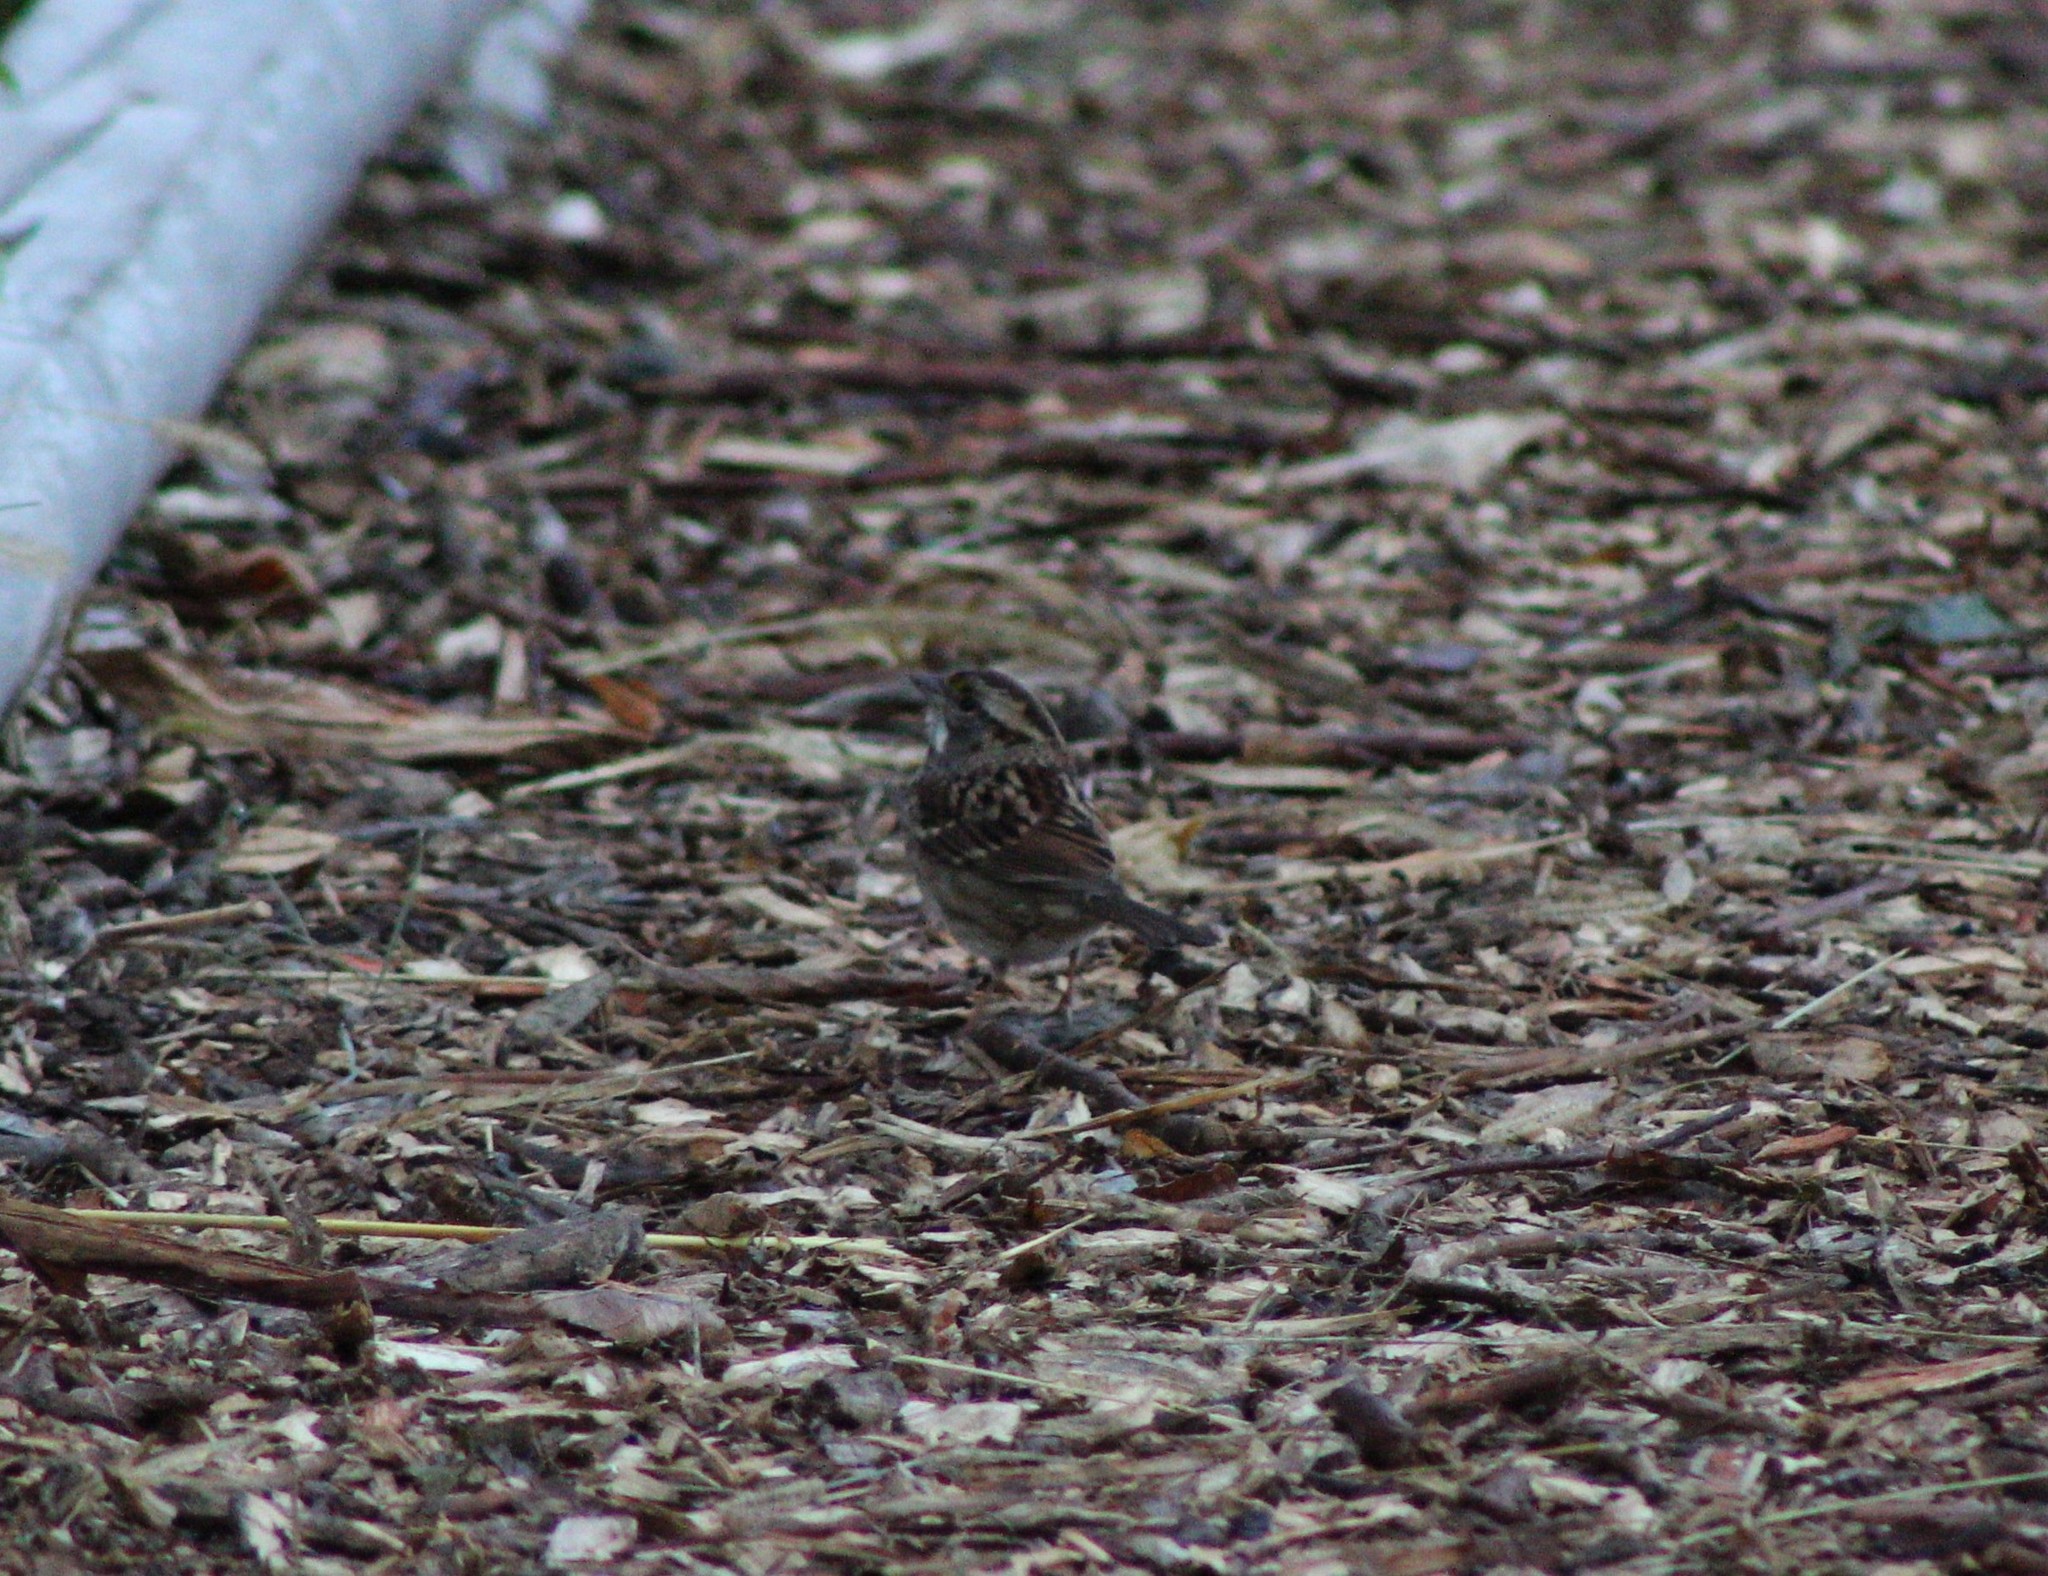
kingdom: Animalia
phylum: Chordata
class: Aves
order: Passeriformes
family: Passerellidae
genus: Zonotrichia
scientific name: Zonotrichia albicollis
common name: White-throated sparrow
